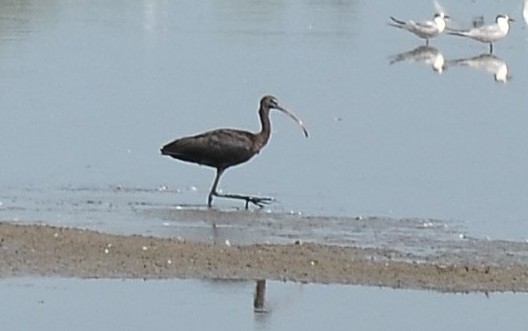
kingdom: Animalia
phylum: Chordata
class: Aves
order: Pelecaniformes
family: Threskiornithidae
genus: Plegadis
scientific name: Plegadis falcinellus
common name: Glossy ibis
